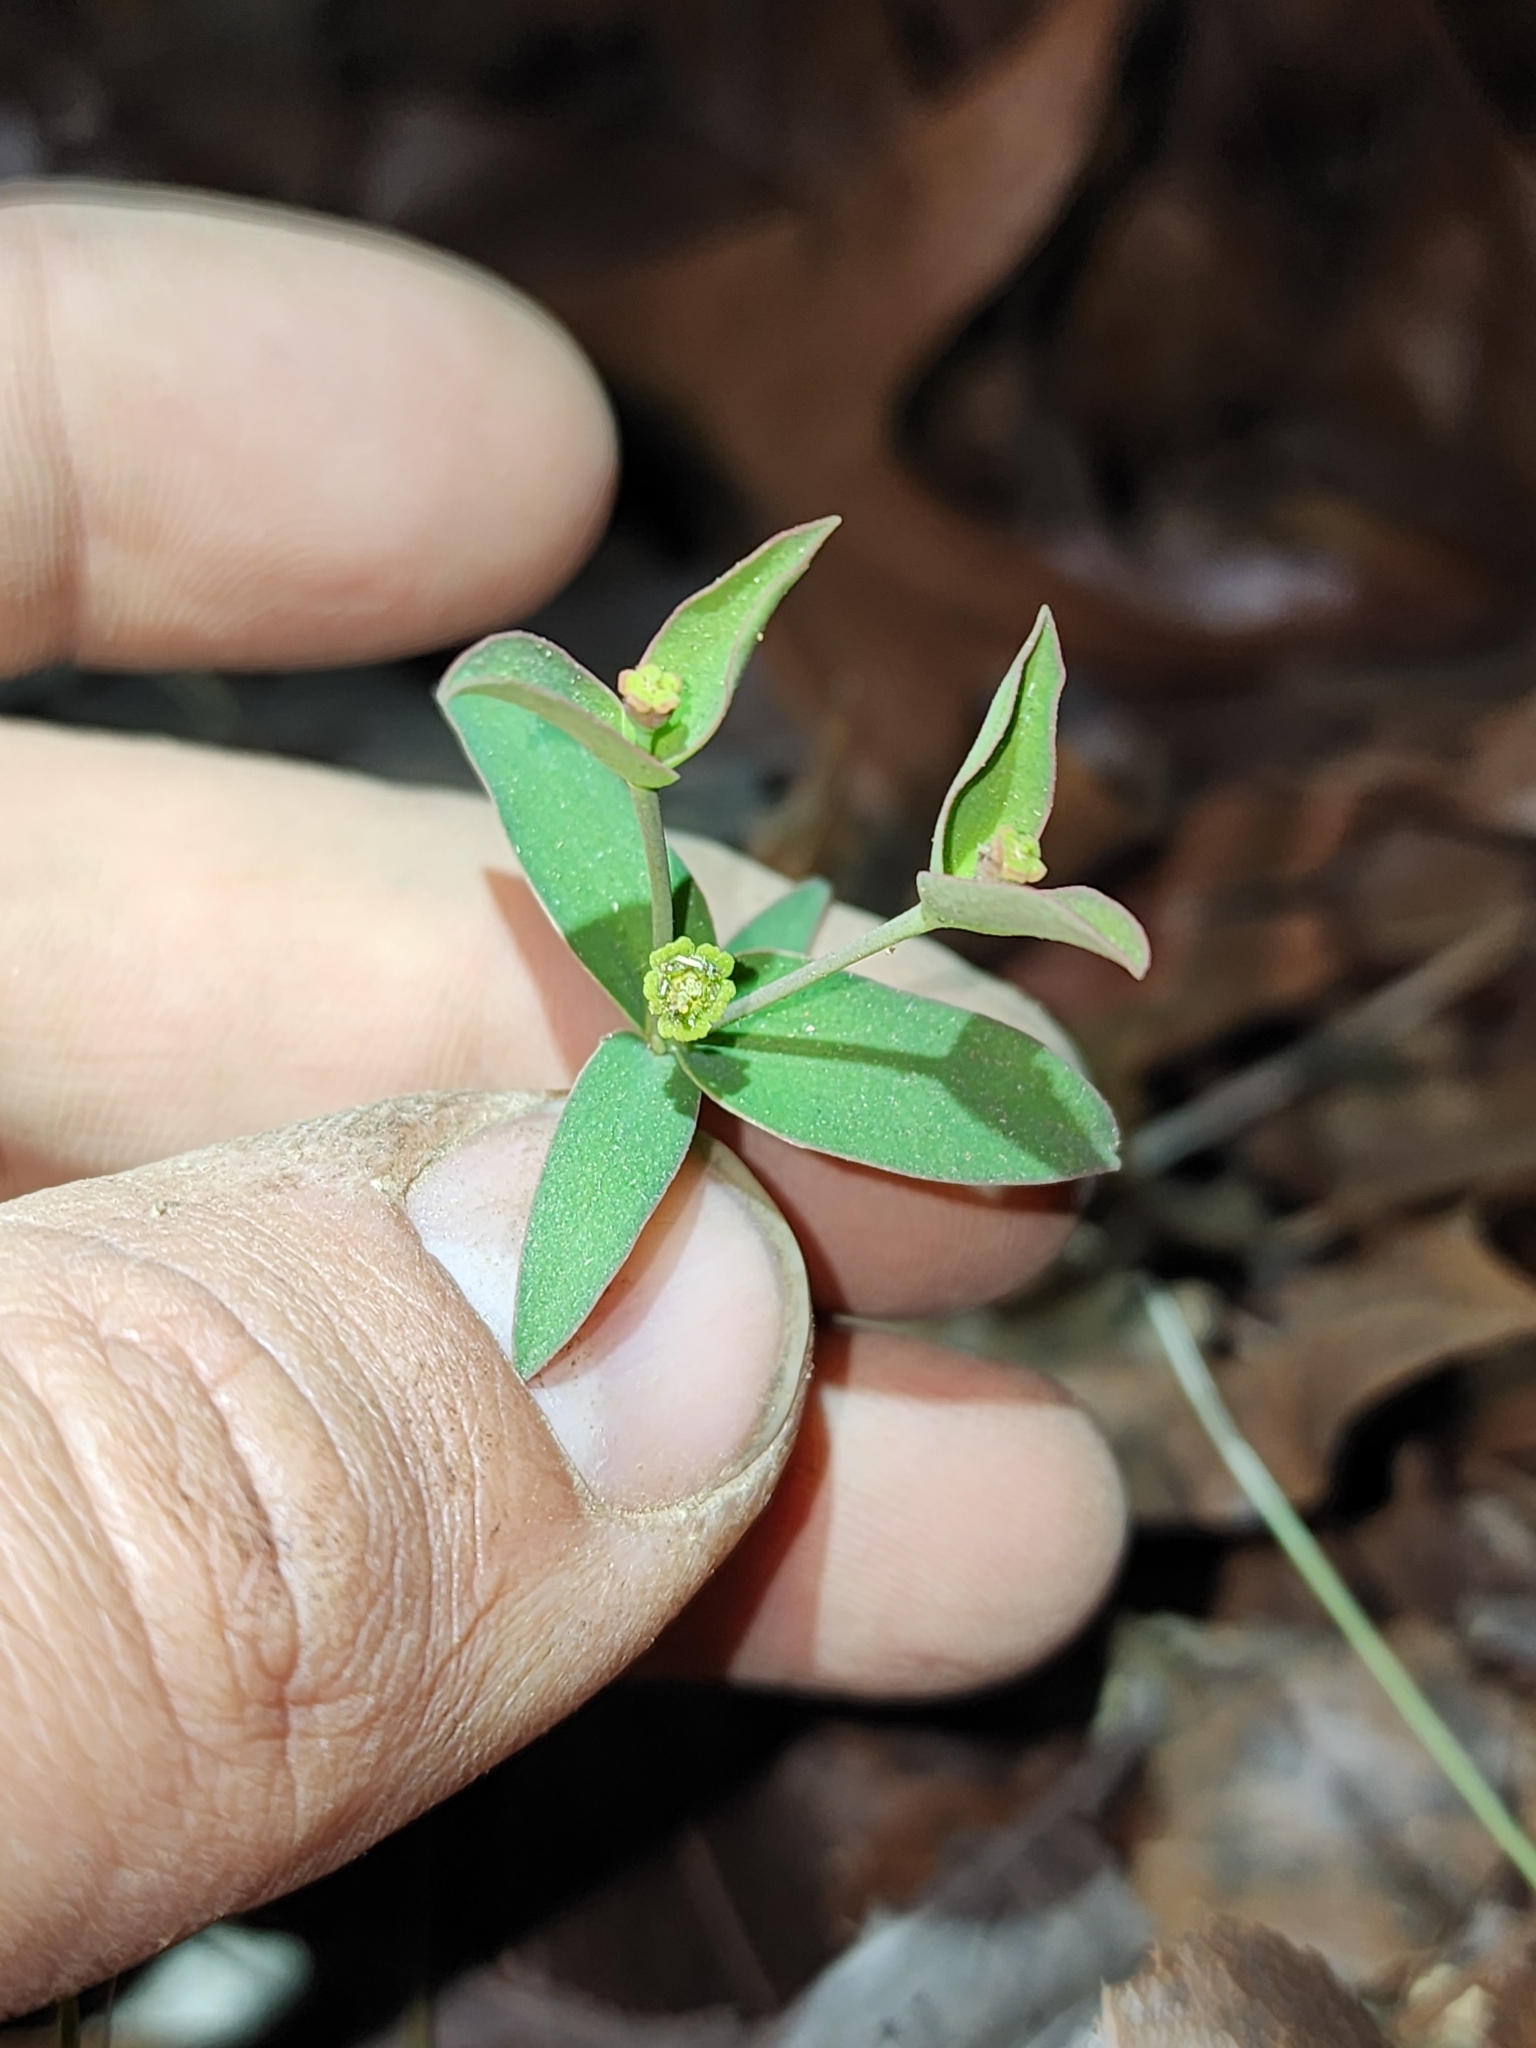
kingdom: Plantae
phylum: Tracheophyta
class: Magnoliopsida
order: Malpighiales
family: Euphorbiaceae
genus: Euphorbia
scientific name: Euphorbia floridana
